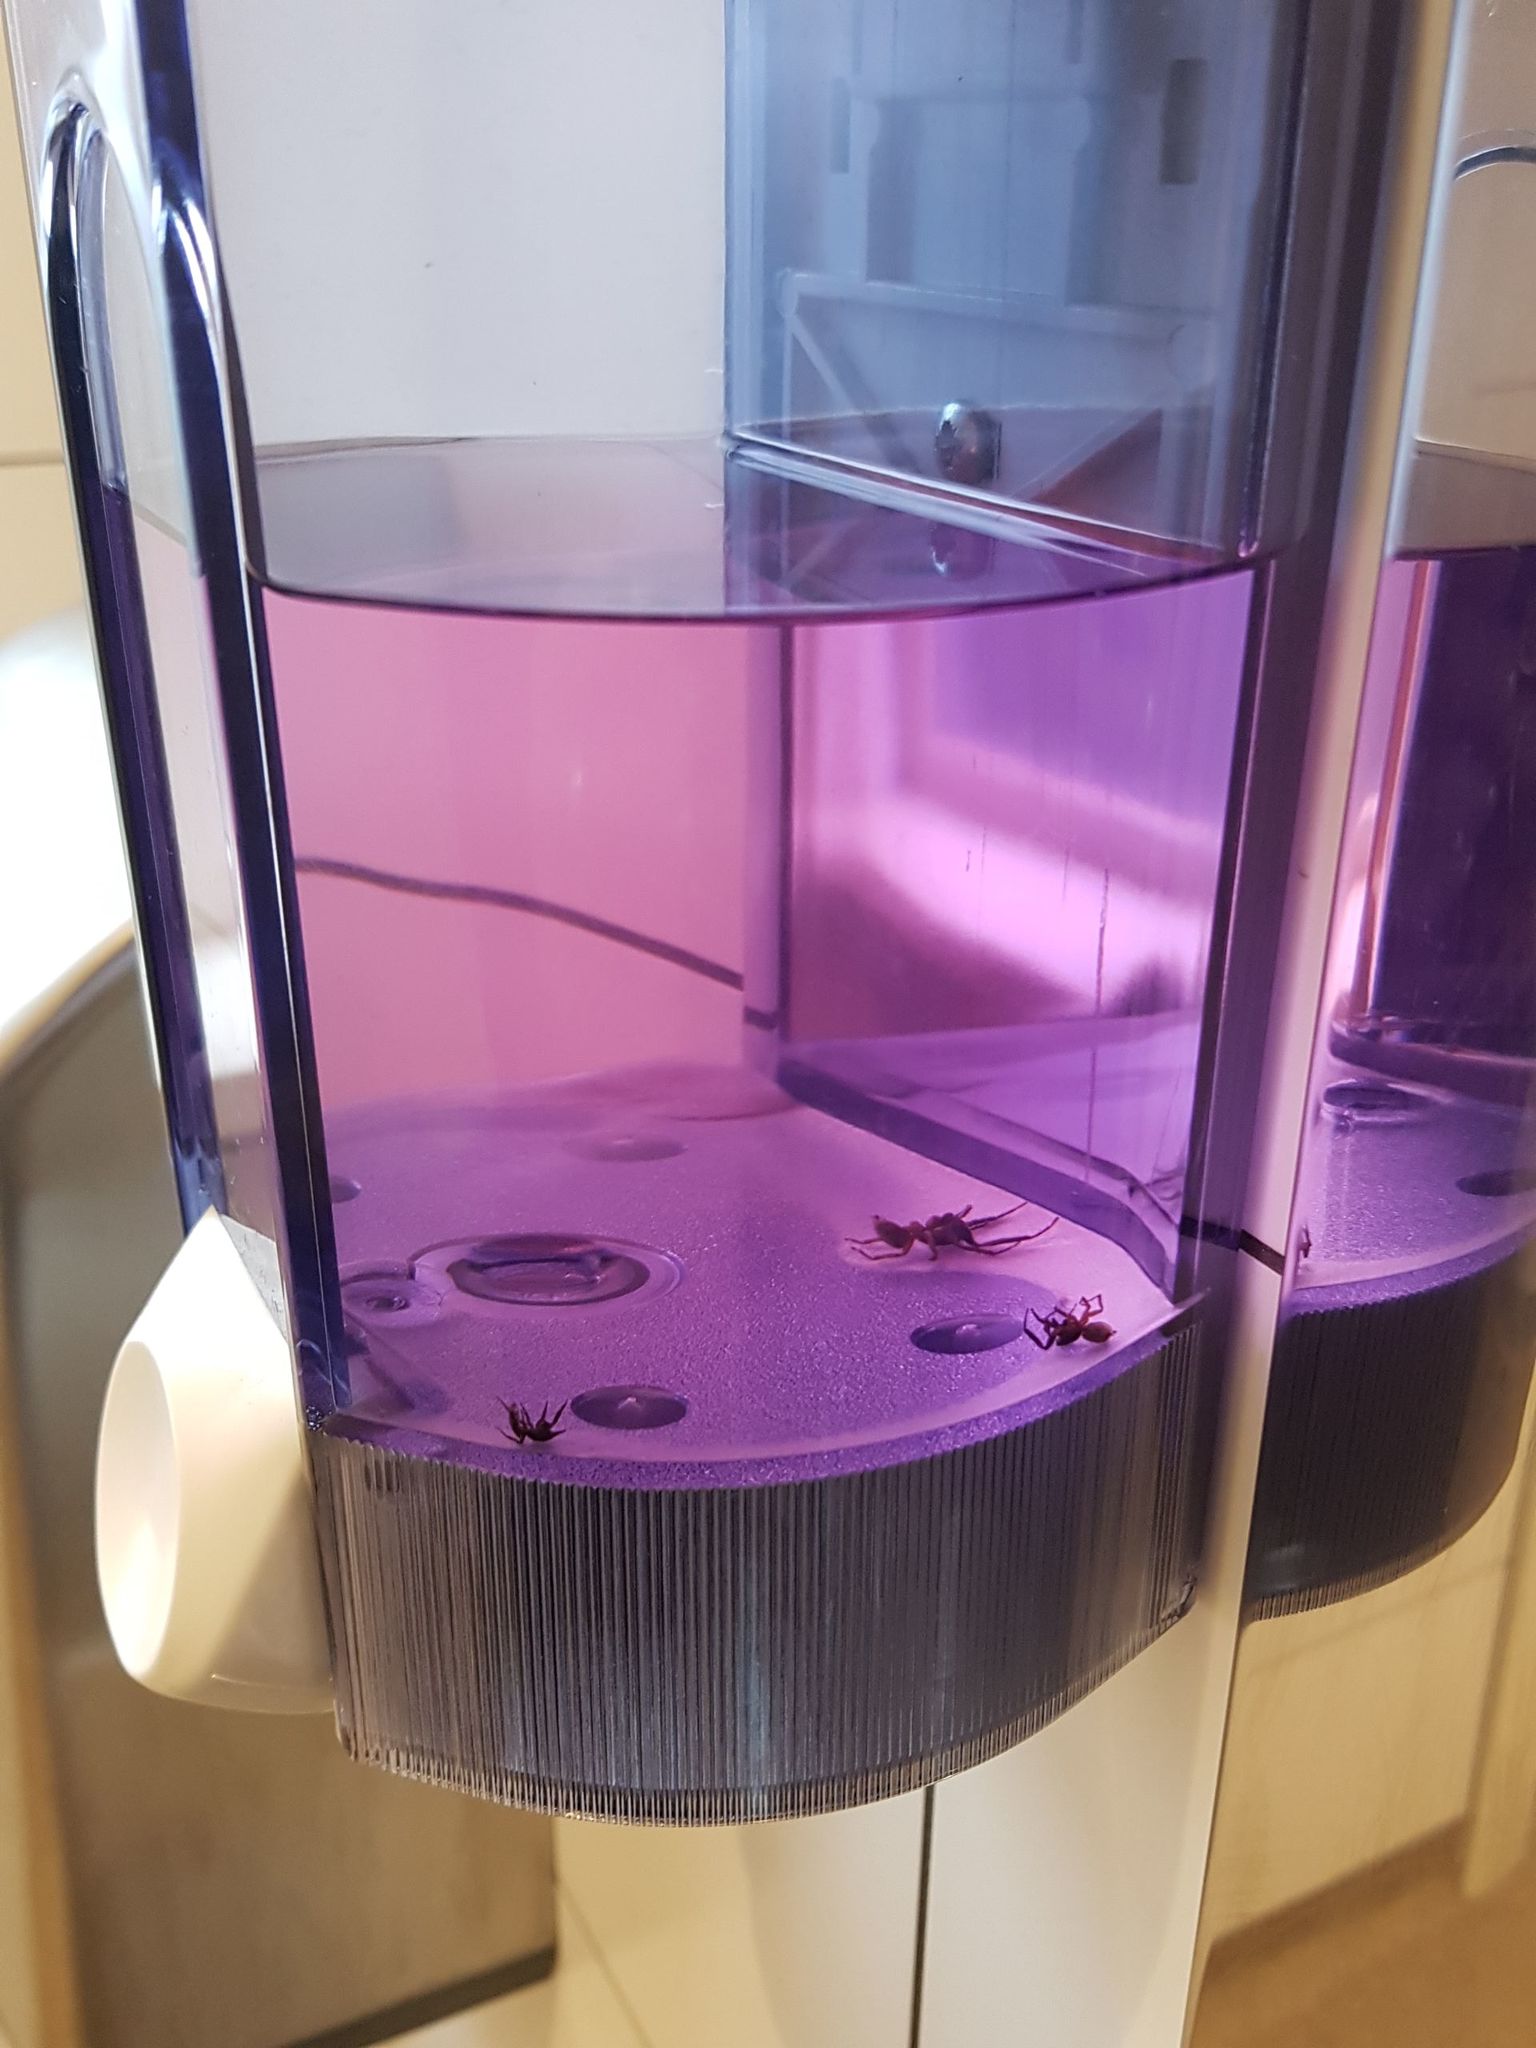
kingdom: Animalia
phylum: Arthropoda
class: Arachnida
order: Araneae
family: Salticidae
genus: Trite
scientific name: Trite planiceps
